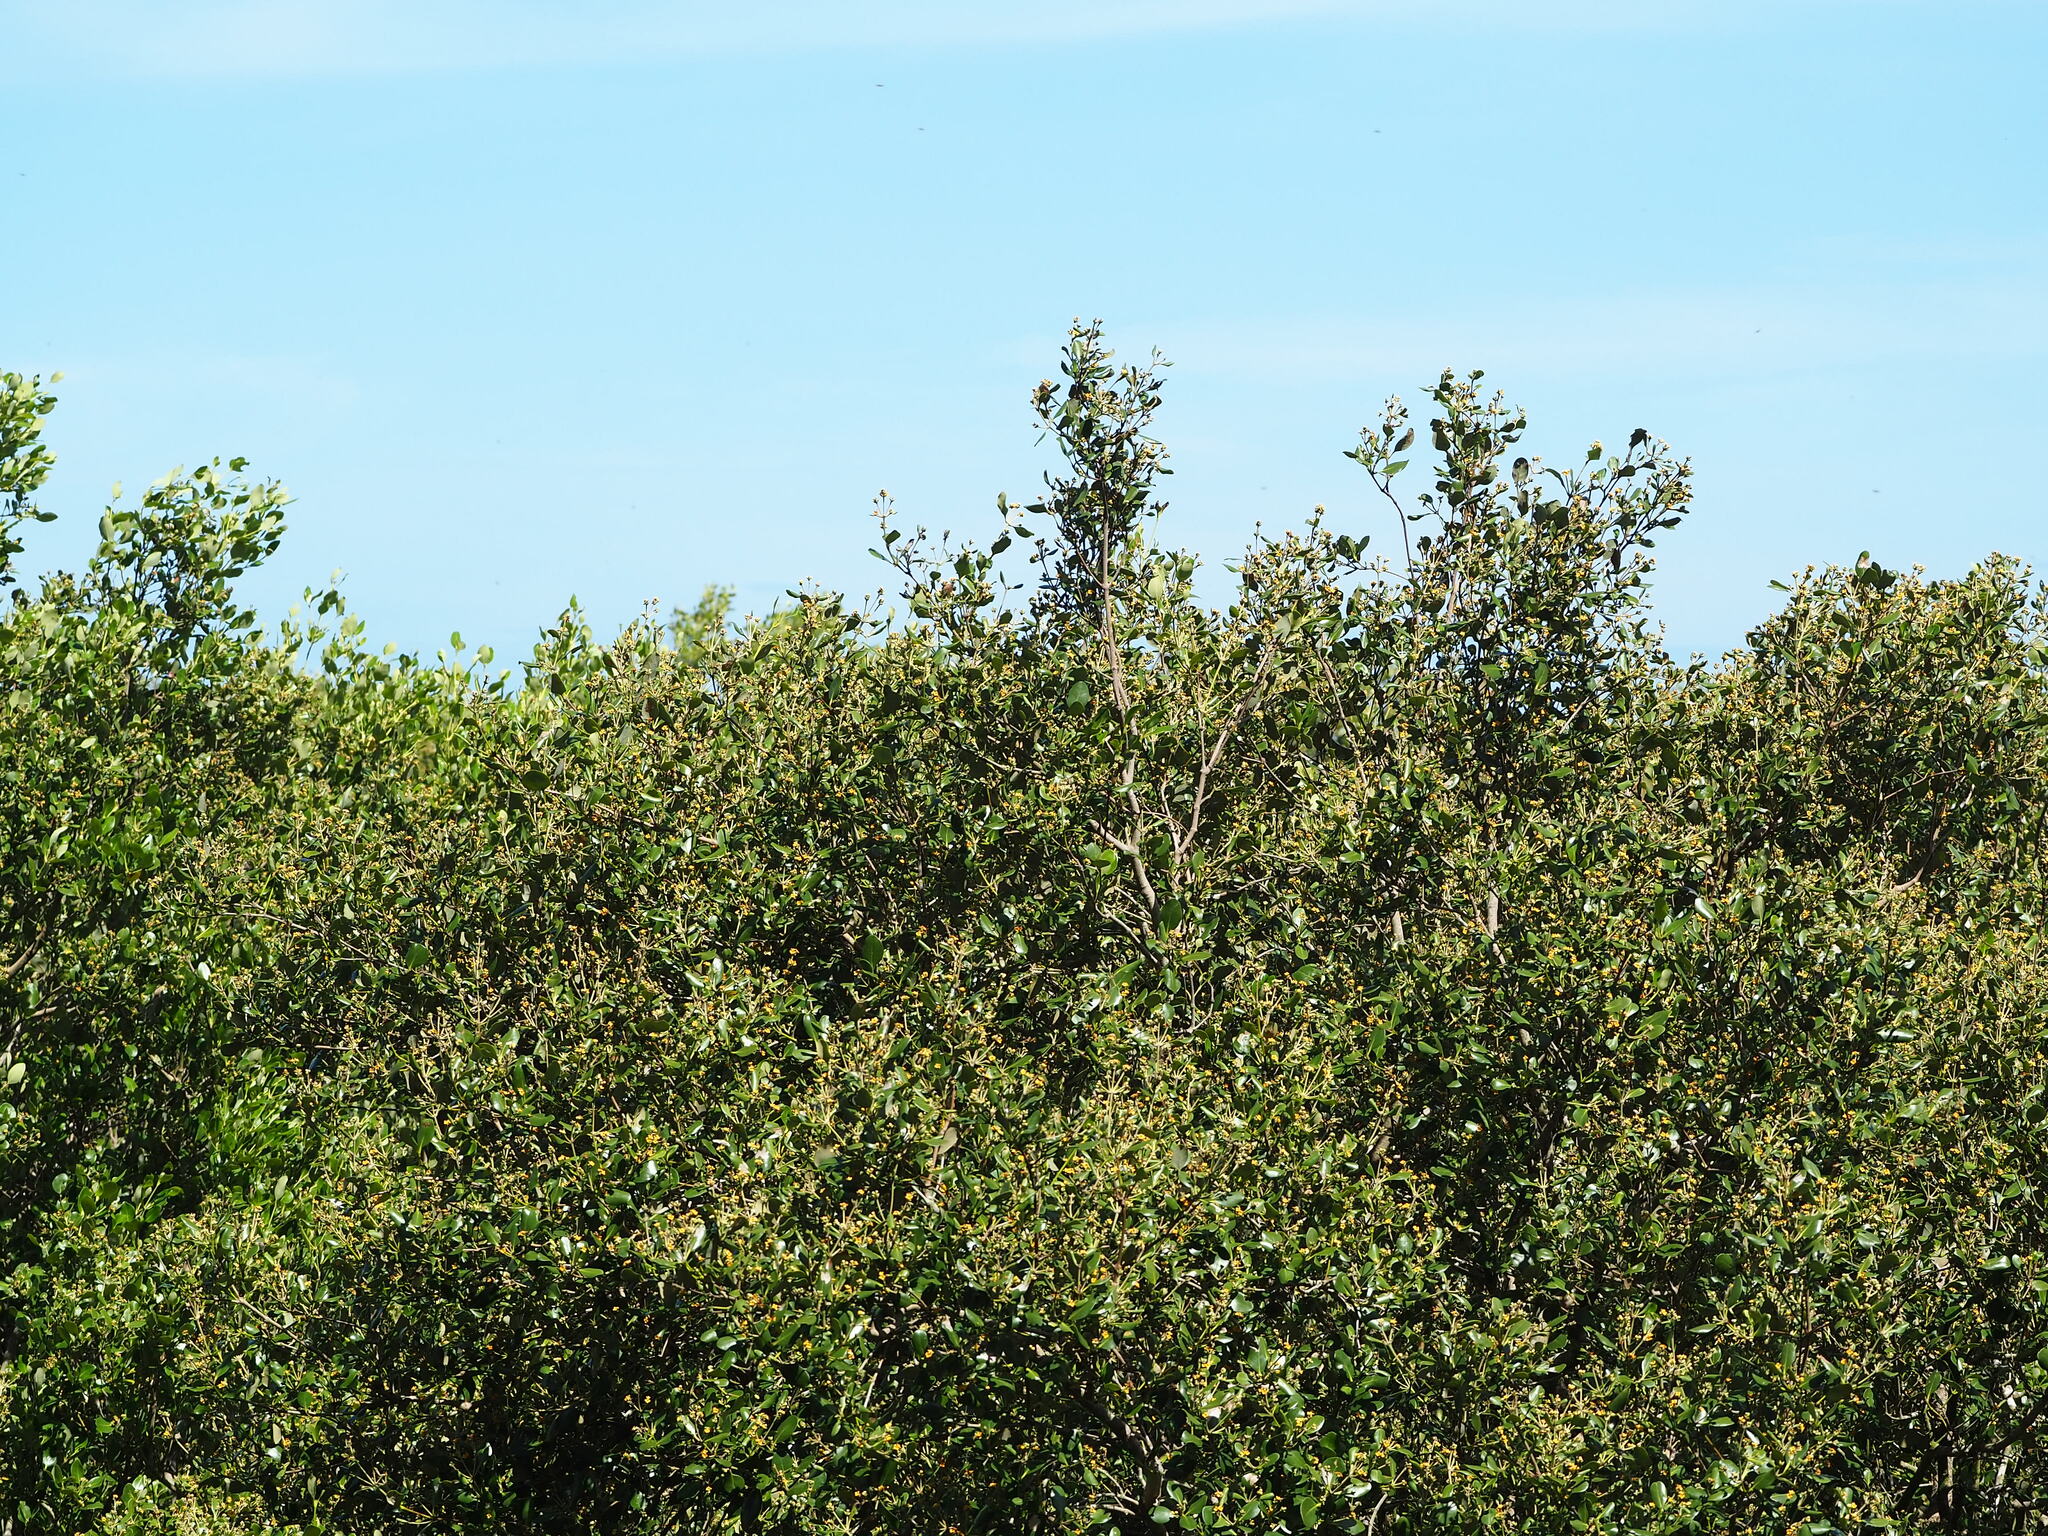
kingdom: Plantae
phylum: Tracheophyta
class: Magnoliopsida
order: Lamiales
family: Acanthaceae
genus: Avicennia
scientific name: Avicennia marina
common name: Gray mangrove
